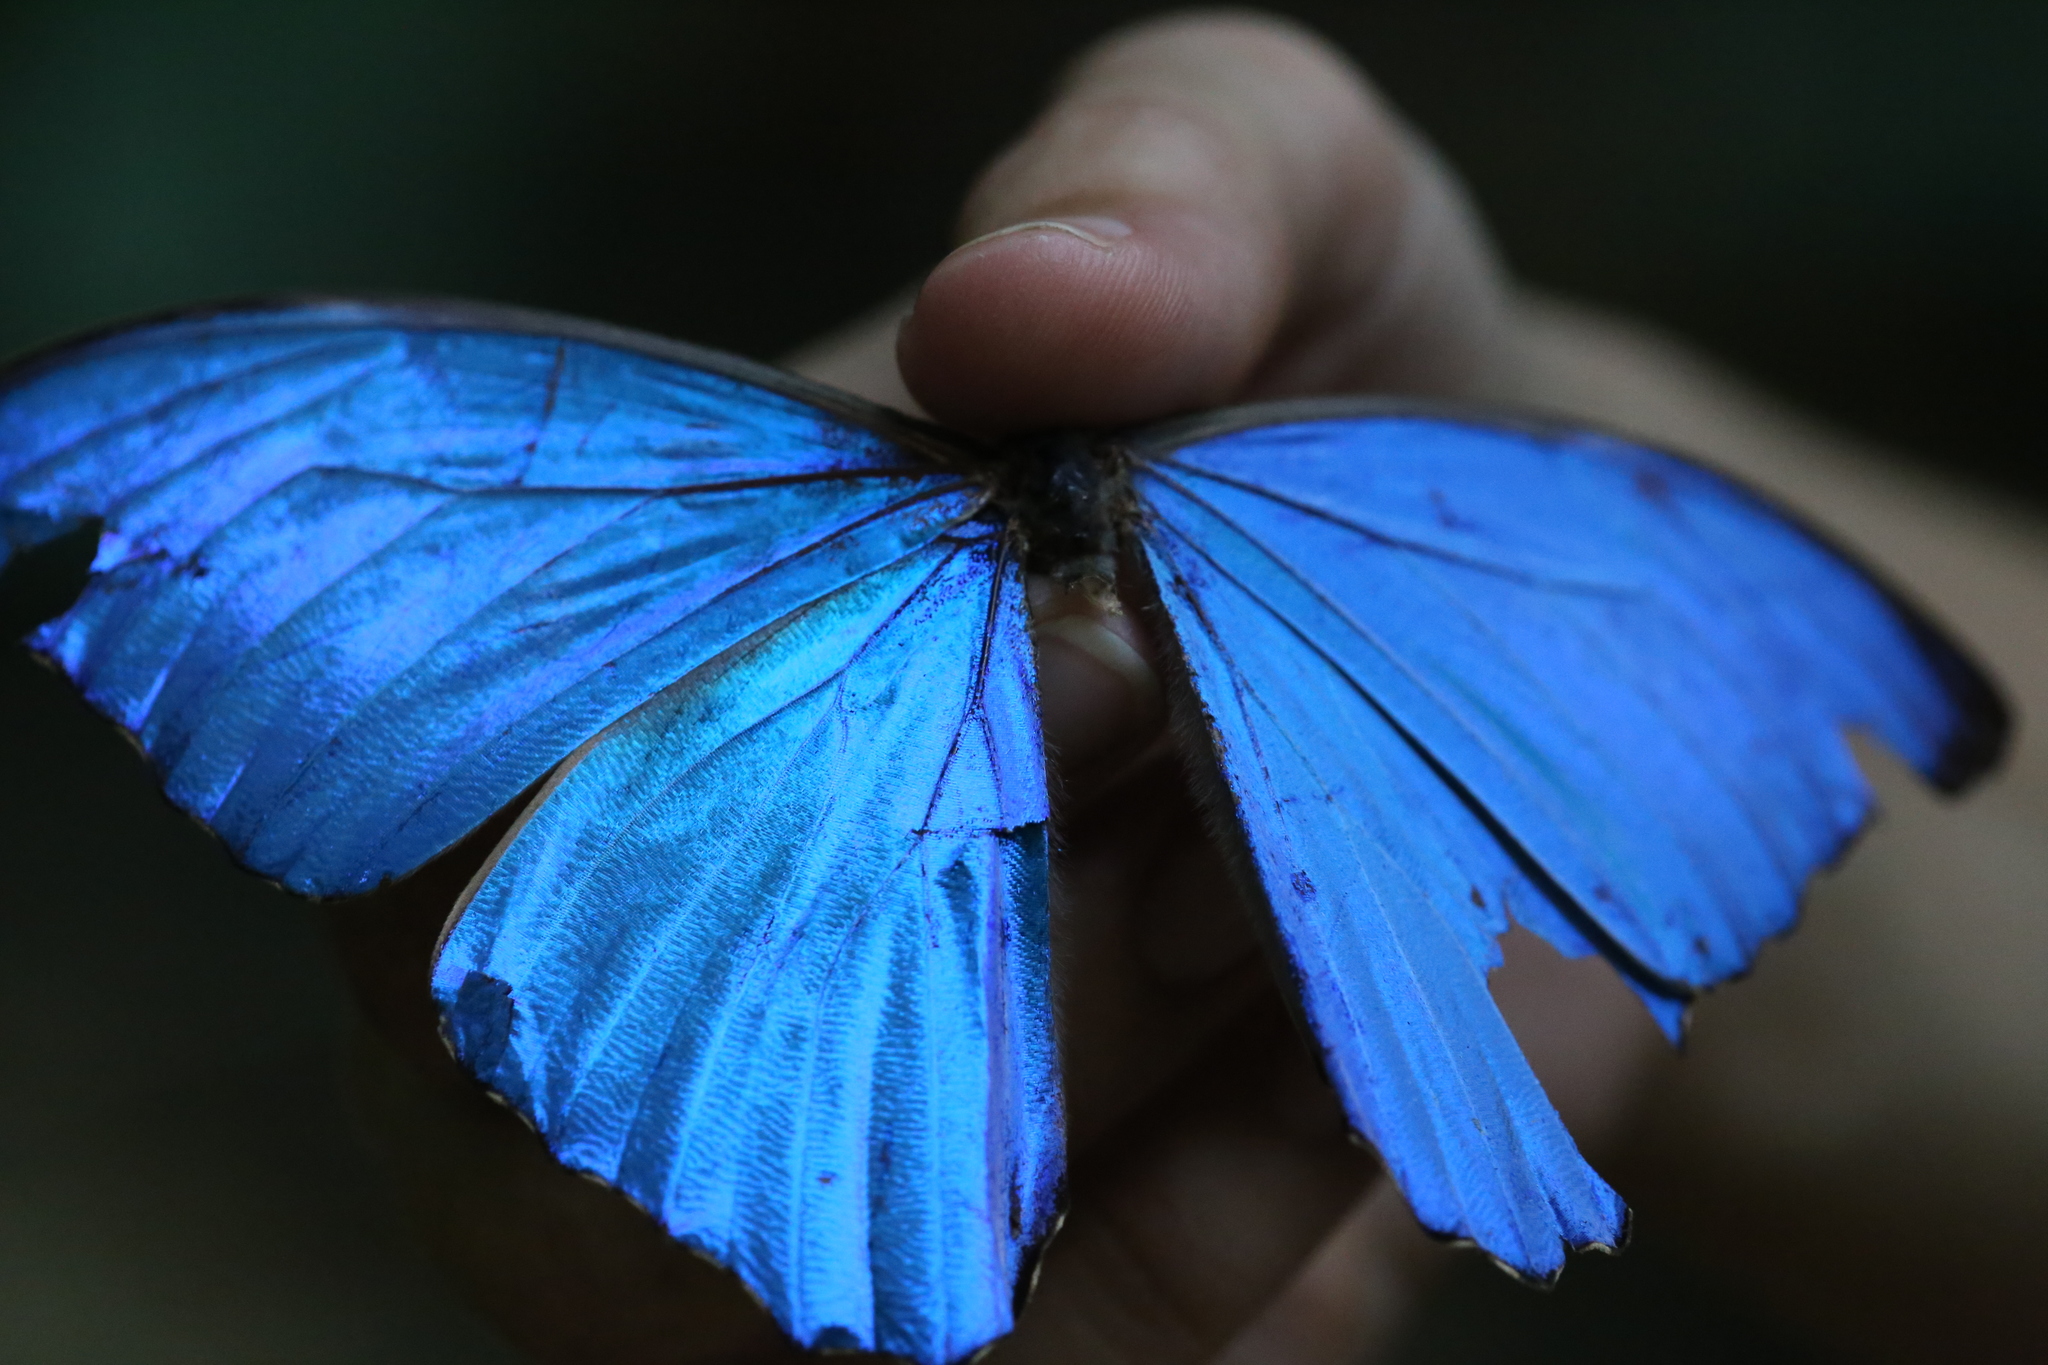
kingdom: Animalia
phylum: Arthropoda
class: Insecta
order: Lepidoptera
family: Nymphalidae
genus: Morpho
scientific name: Morpho amathonte
